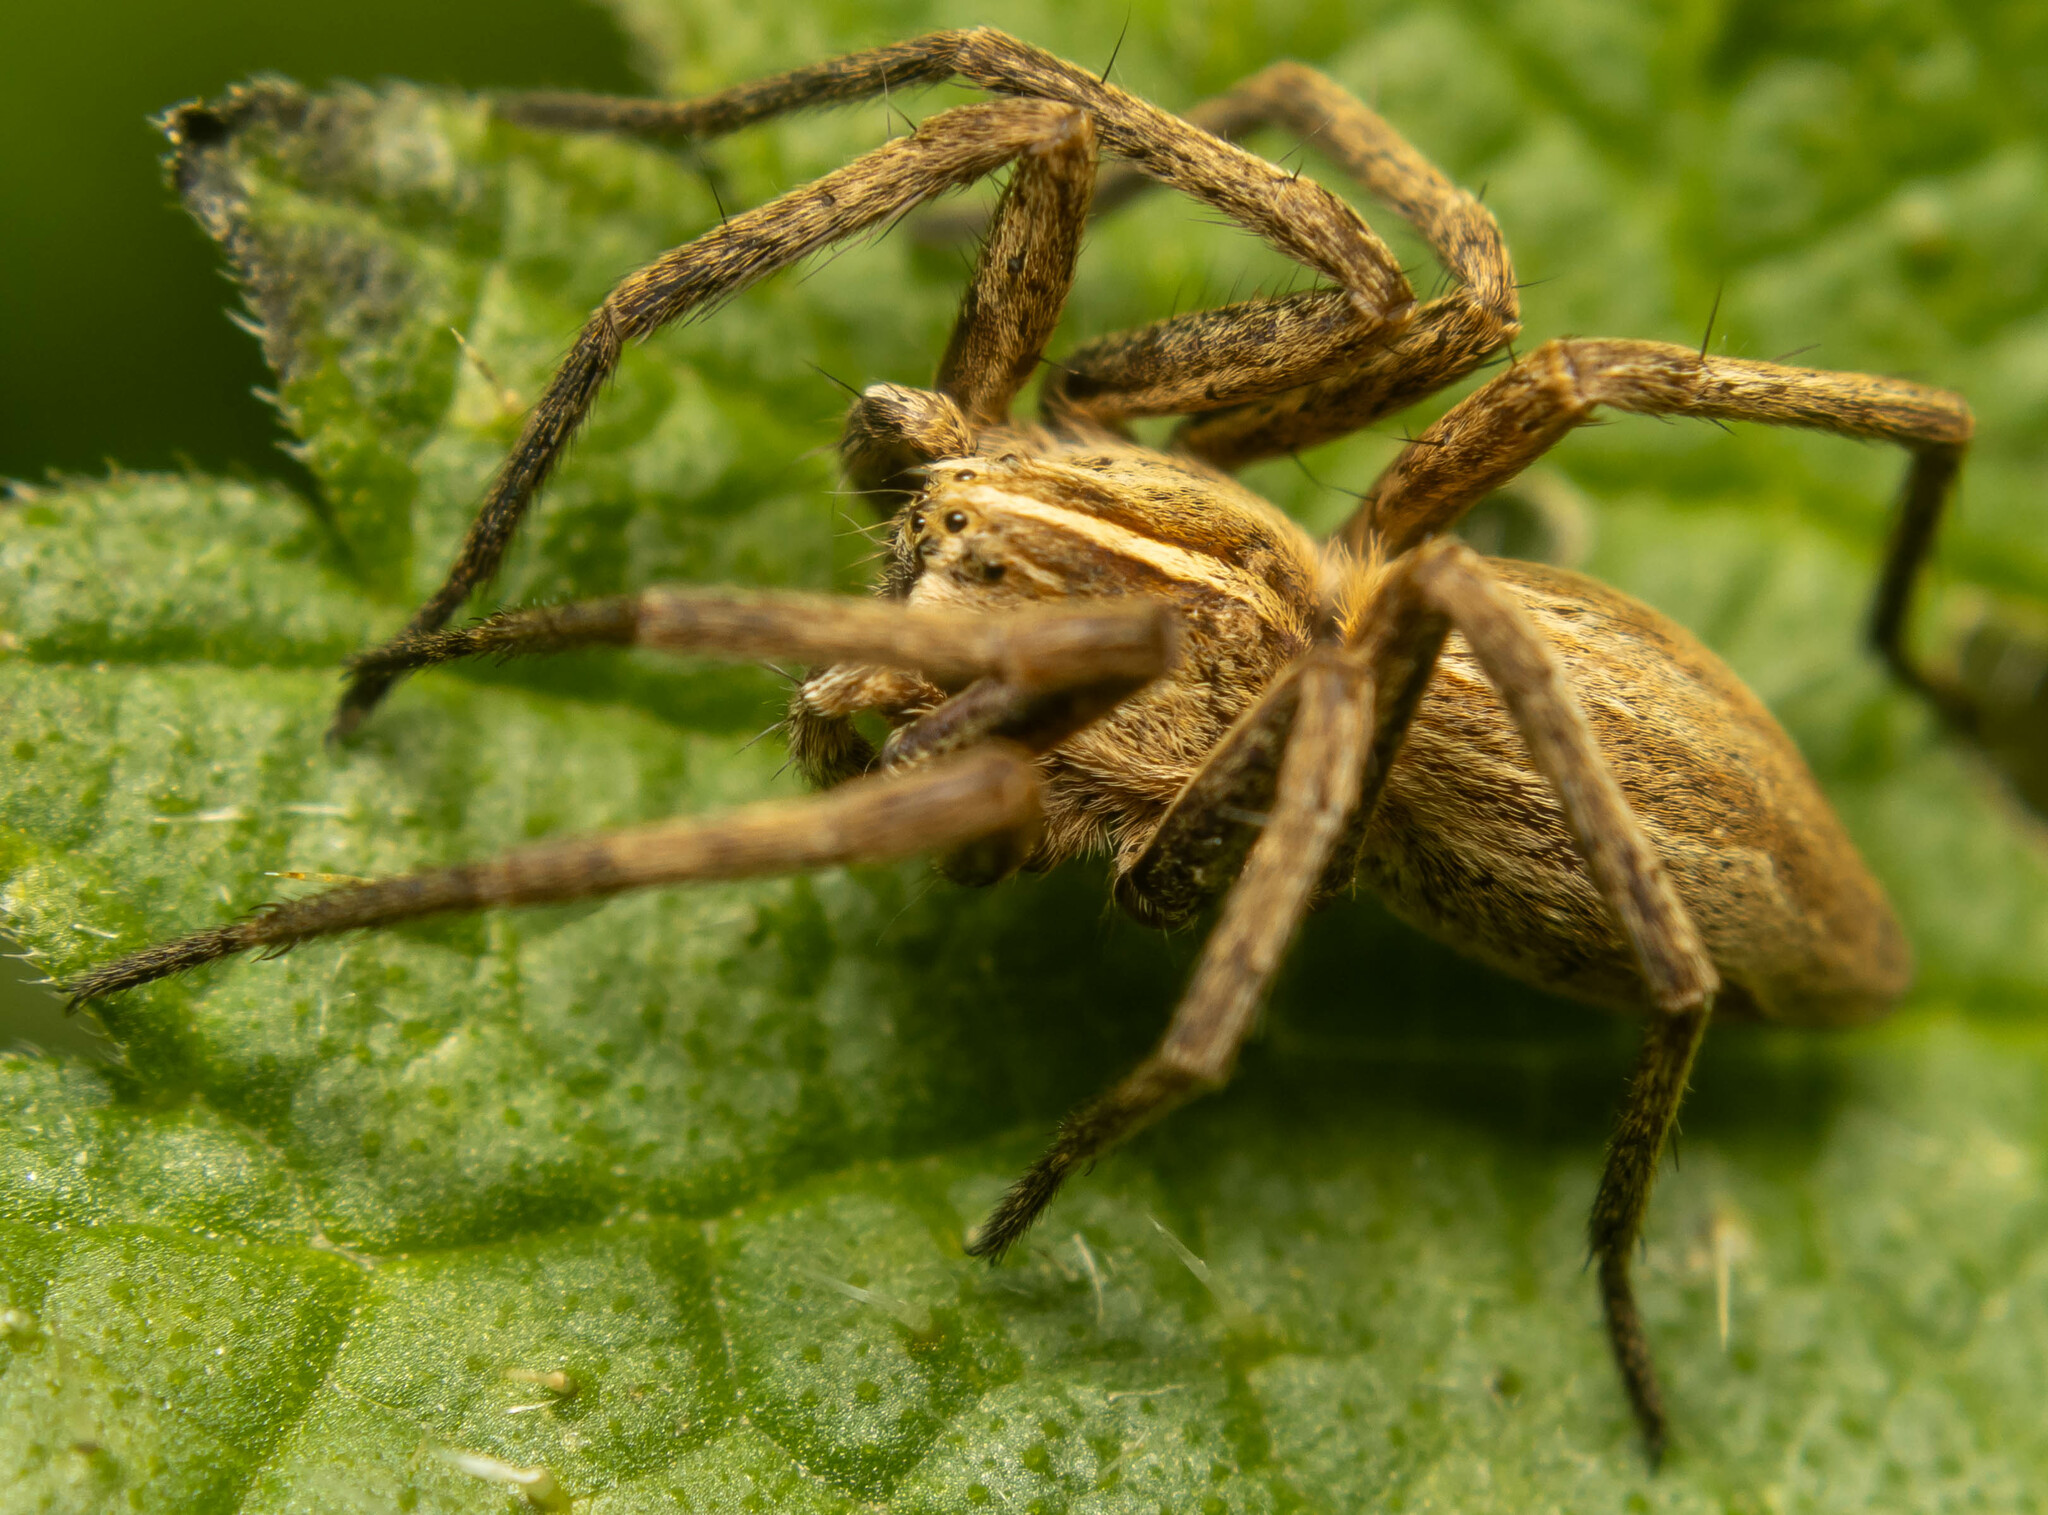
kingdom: Animalia
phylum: Arthropoda
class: Arachnida
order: Araneae
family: Pisauridae
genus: Pisaura
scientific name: Pisaura mirabilis
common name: Tent spider
